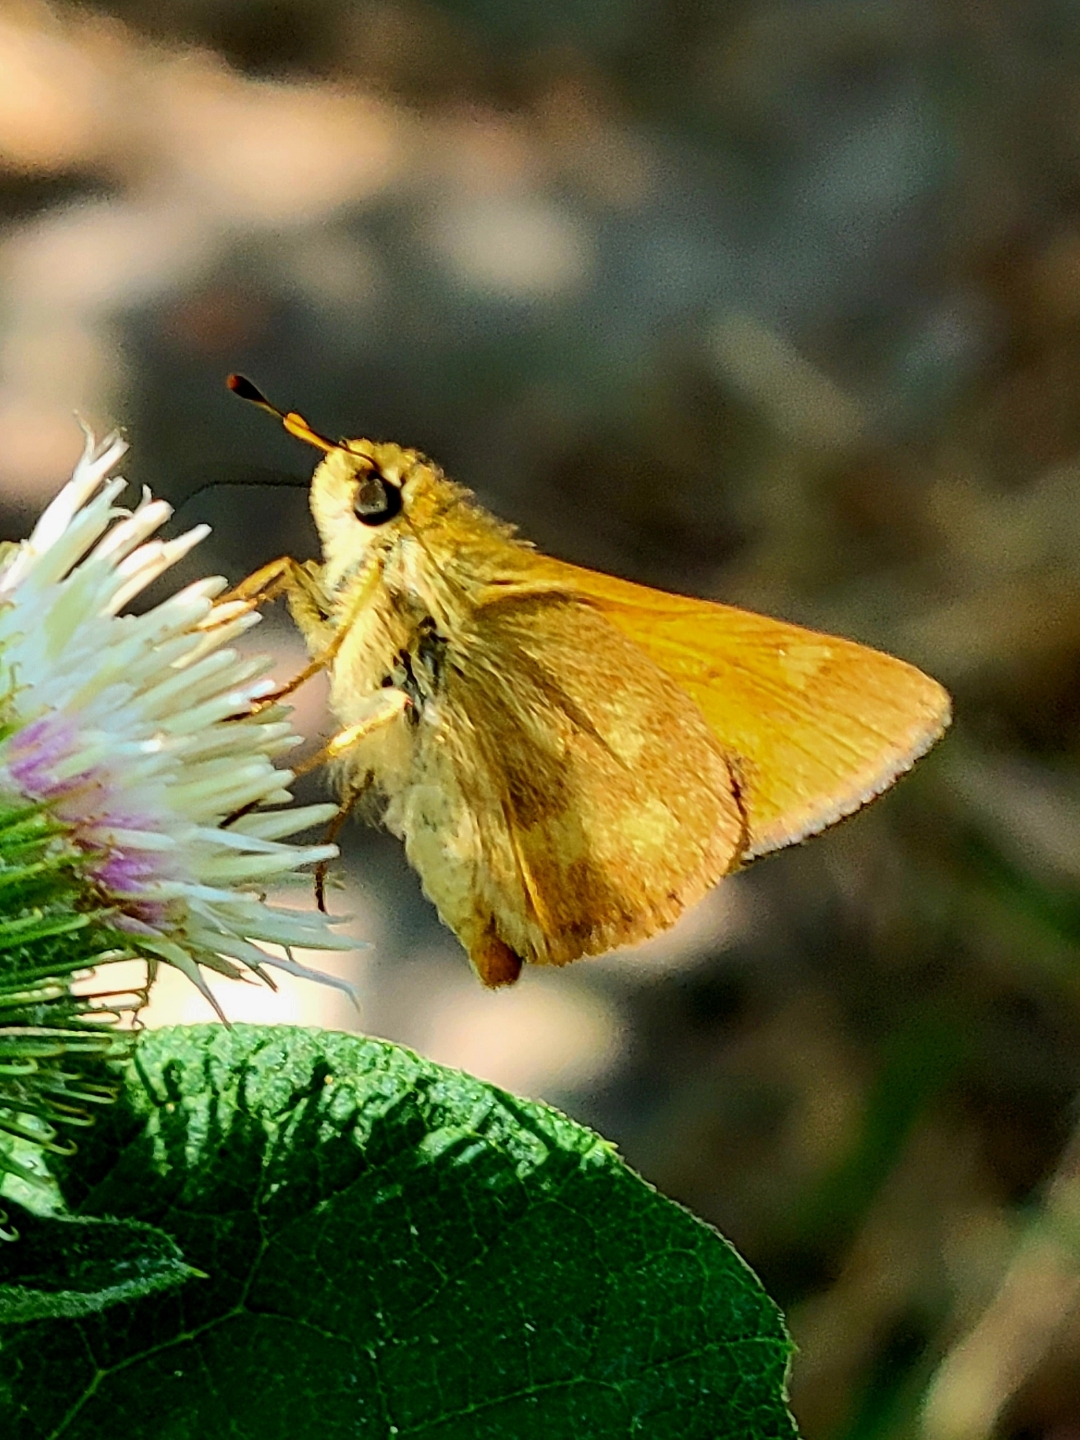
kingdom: Animalia
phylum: Arthropoda
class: Insecta
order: Lepidoptera
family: Hesperiidae
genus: Ochlodes
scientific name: Ochlodes sylvanoides
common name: Woodland skipper
